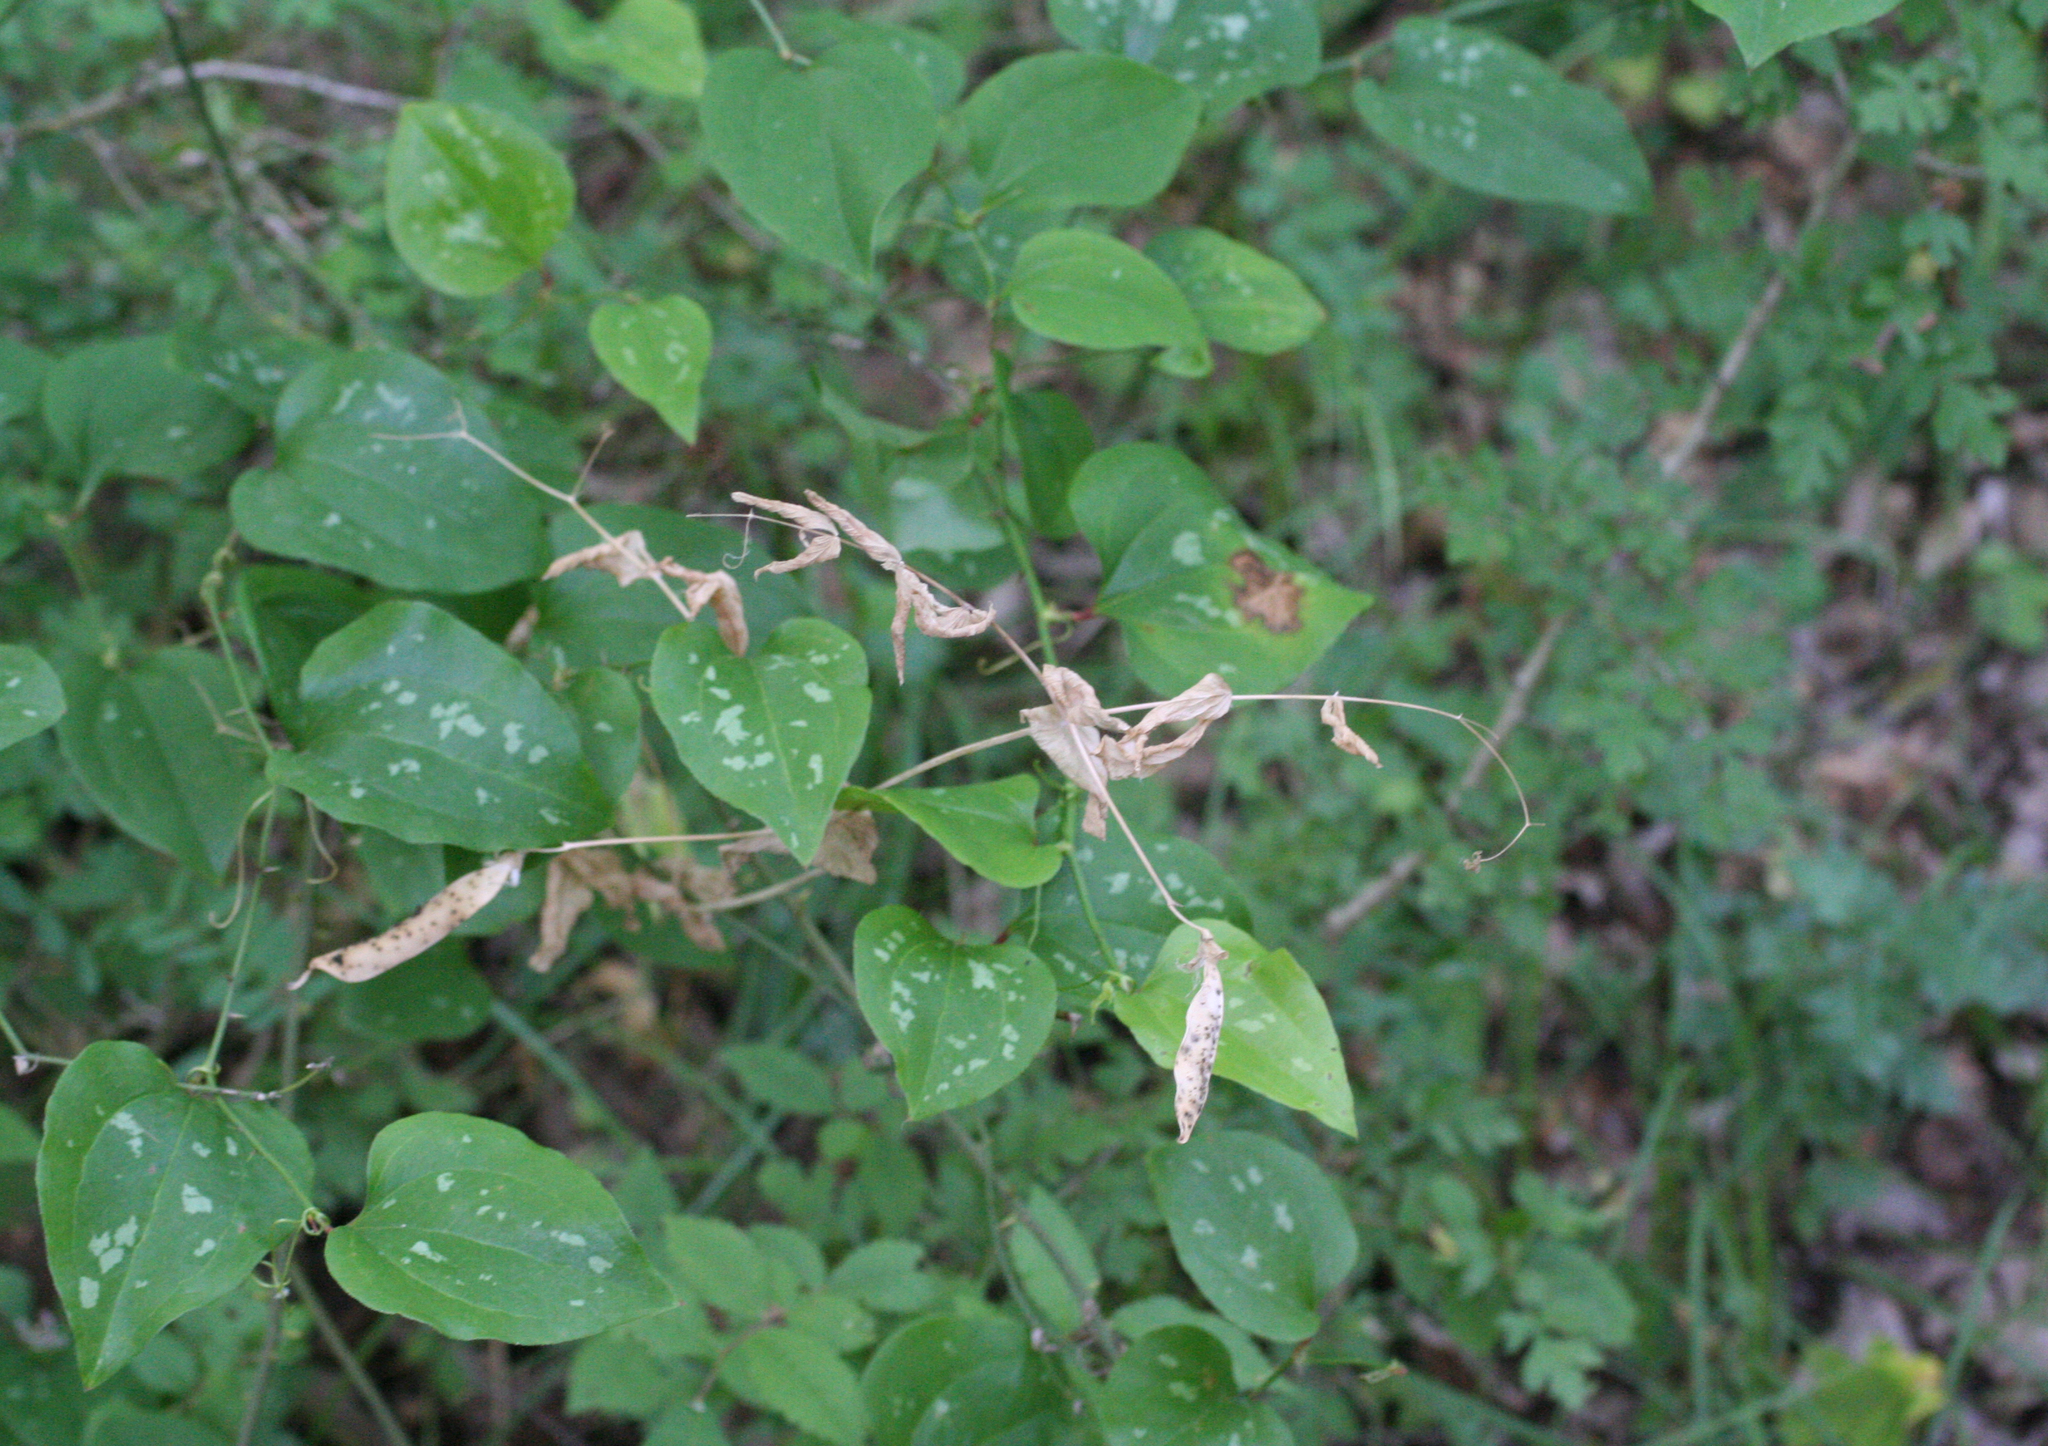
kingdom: Plantae
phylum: Tracheophyta
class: Magnoliopsida
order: Fabales
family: Fabaceae
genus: Lathyrus
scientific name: Lathyrus oleraceus
